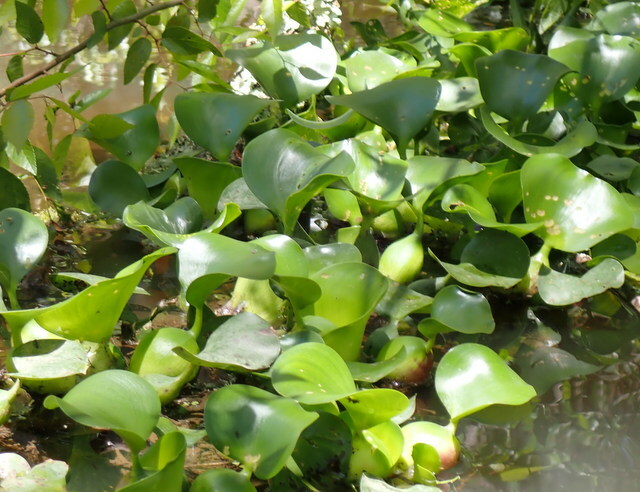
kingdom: Plantae
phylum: Tracheophyta
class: Liliopsida
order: Commelinales
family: Pontederiaceae
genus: Pontederia
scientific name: Pontederia crassipes
